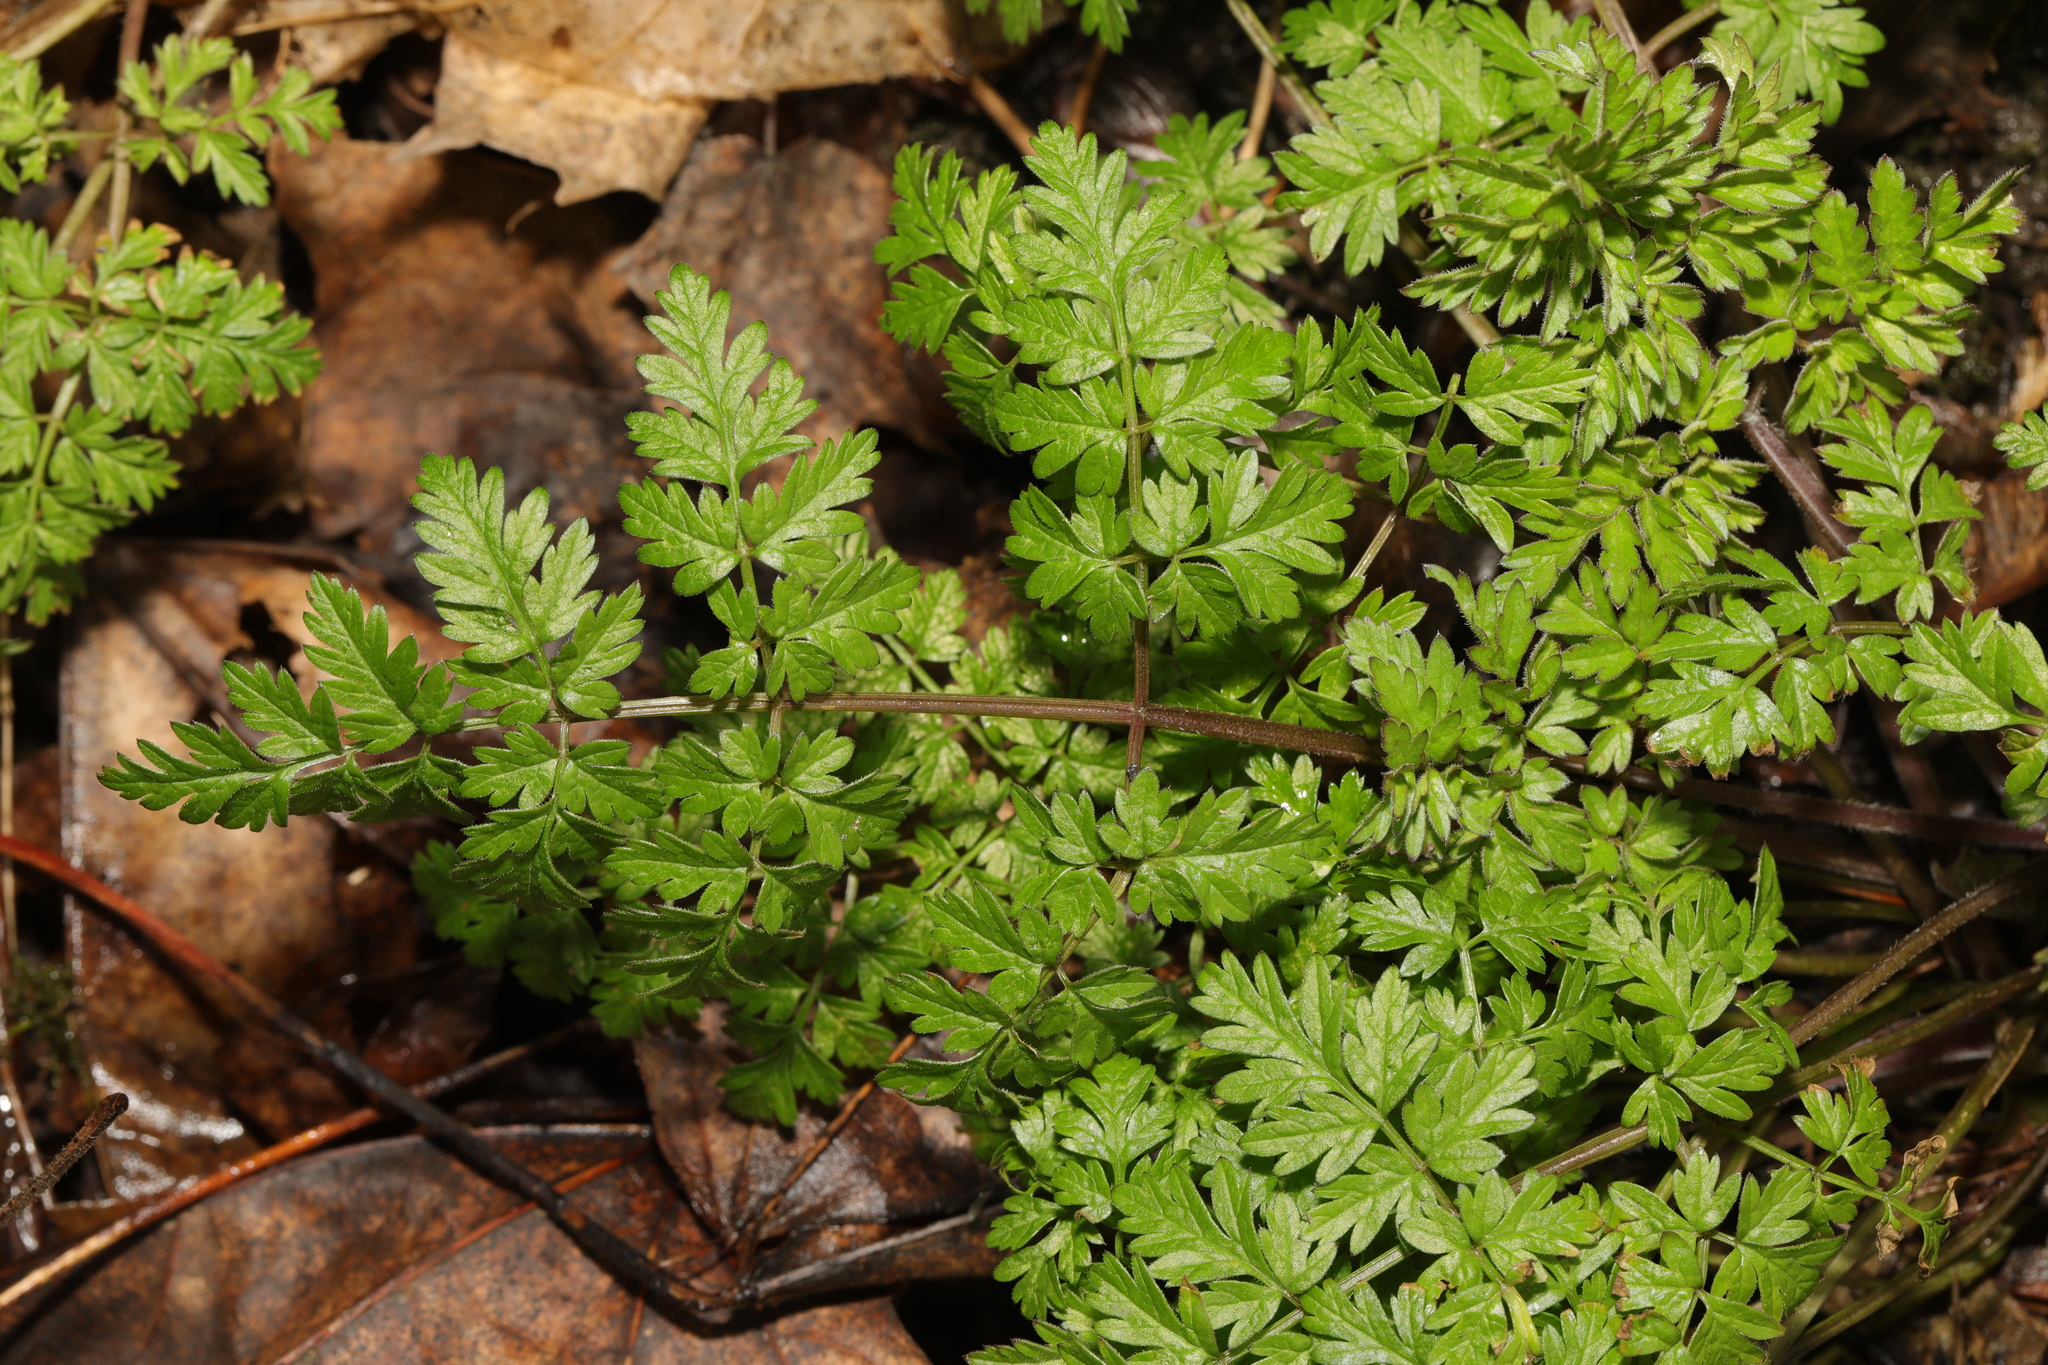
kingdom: Plantae
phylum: Tracheophyta
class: Magnoliopsida
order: Apiales
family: Apiaceae
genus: Anthriscus
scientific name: Anthriscus sylvestris
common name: Cow parsley
